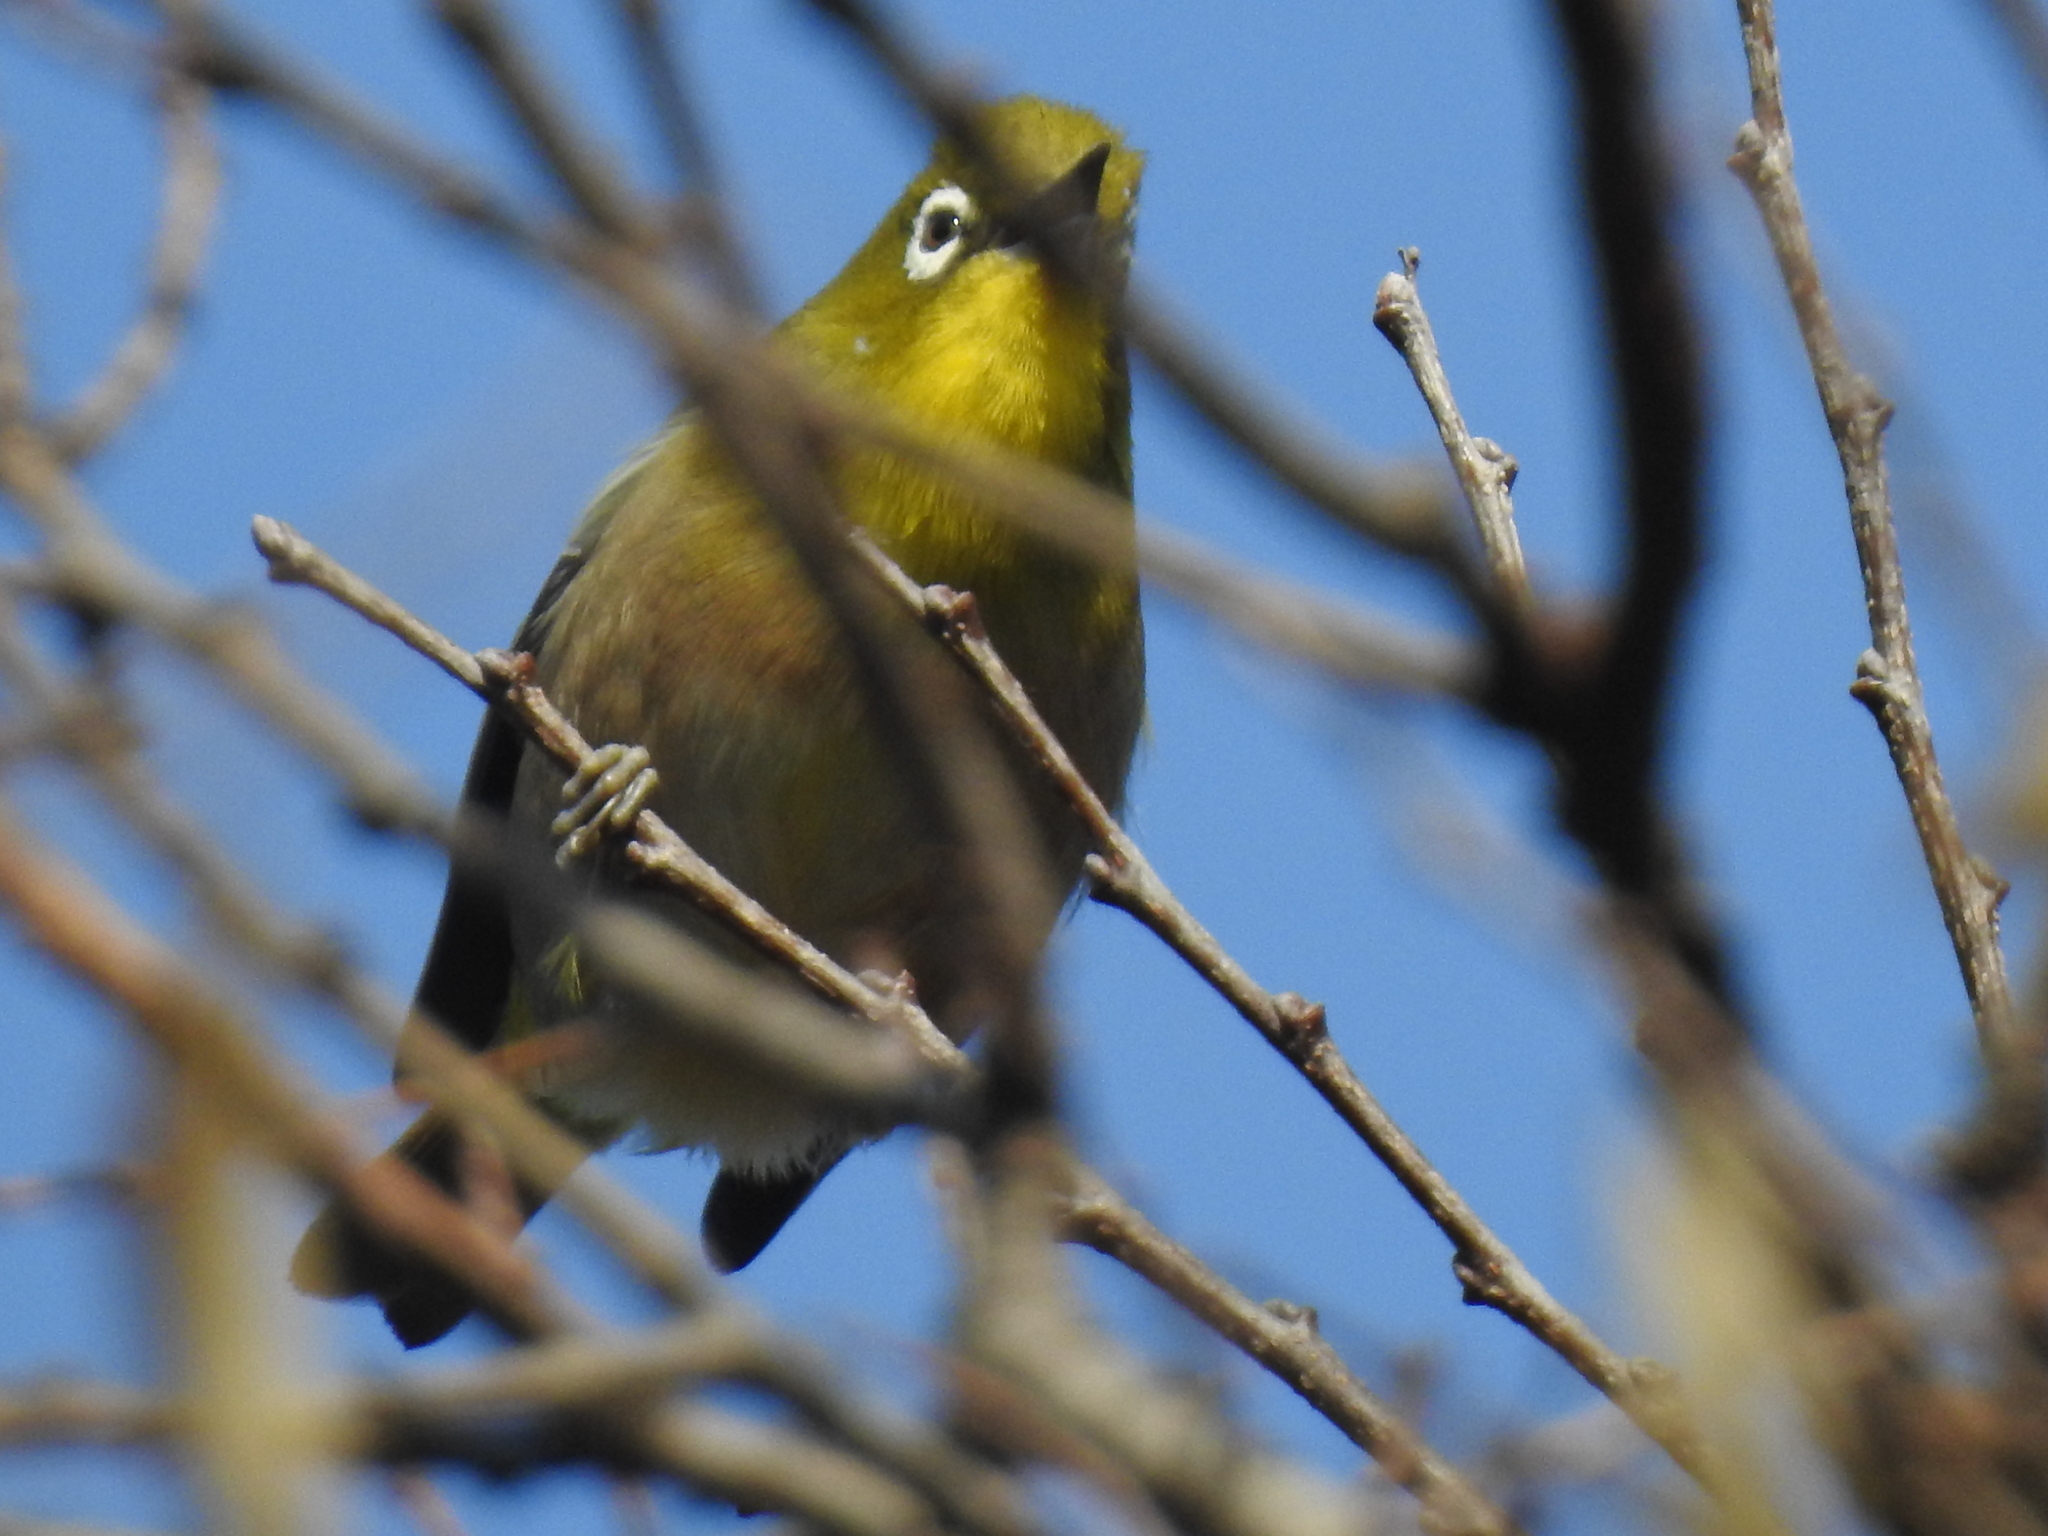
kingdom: Animalia
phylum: Chordata
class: Aves
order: Passeriformes
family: Zosteropidae
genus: Zosterops
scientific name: Zosterops japonicus
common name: Japanese white-eye
